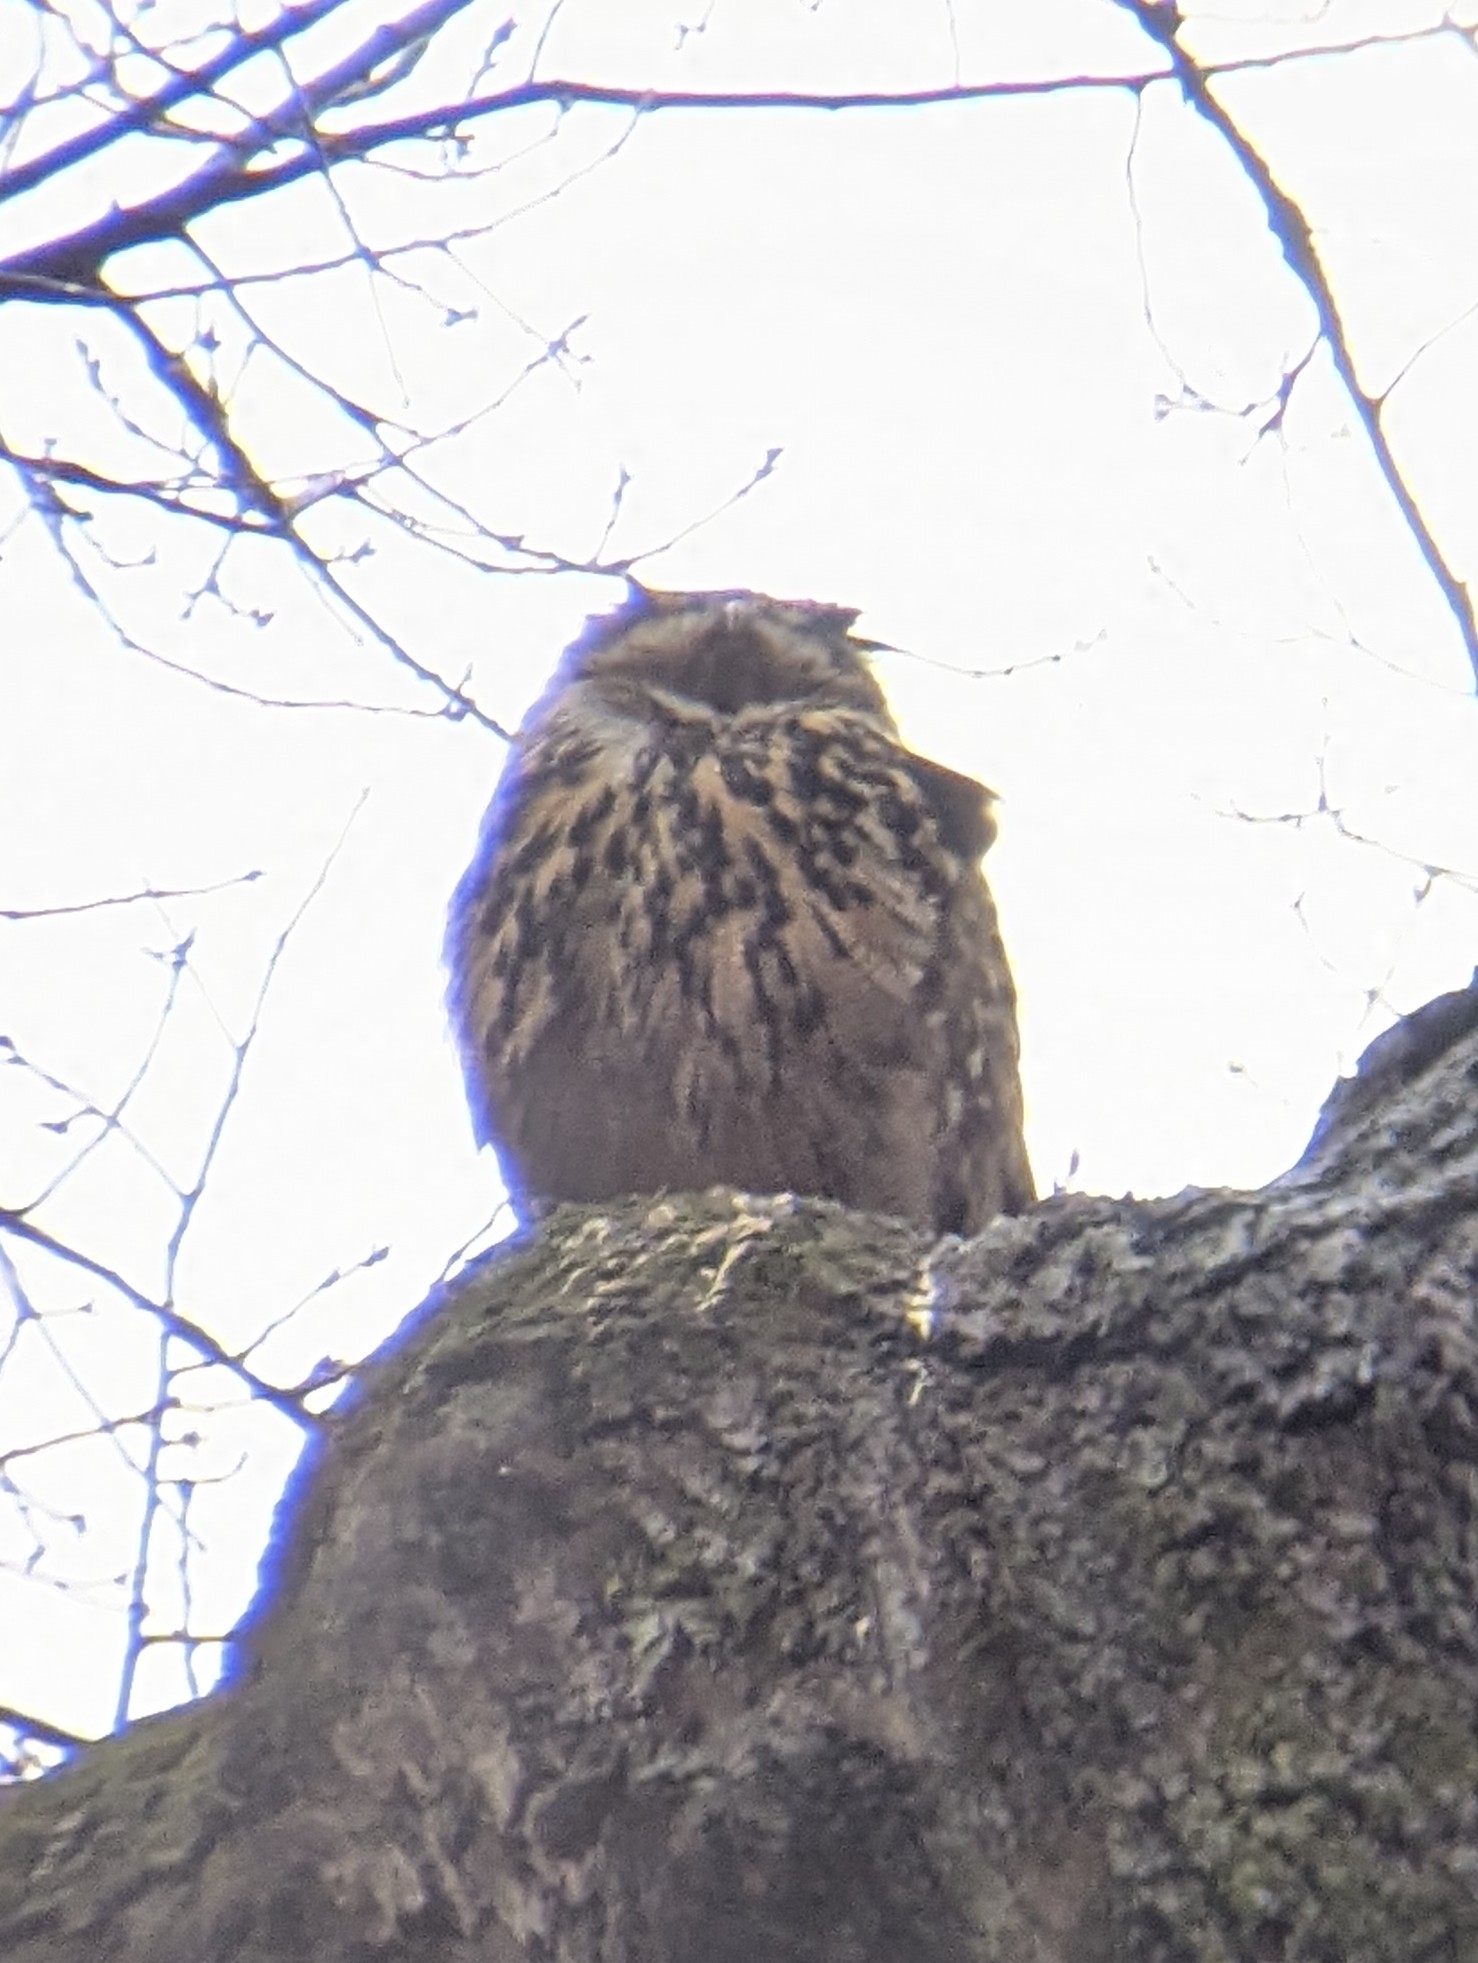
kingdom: Animalia
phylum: Chordata
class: Aves
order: Strigiformes
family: Strigidae
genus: Bubo
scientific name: Bubo bubo
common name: Eurasian eagle-owl
